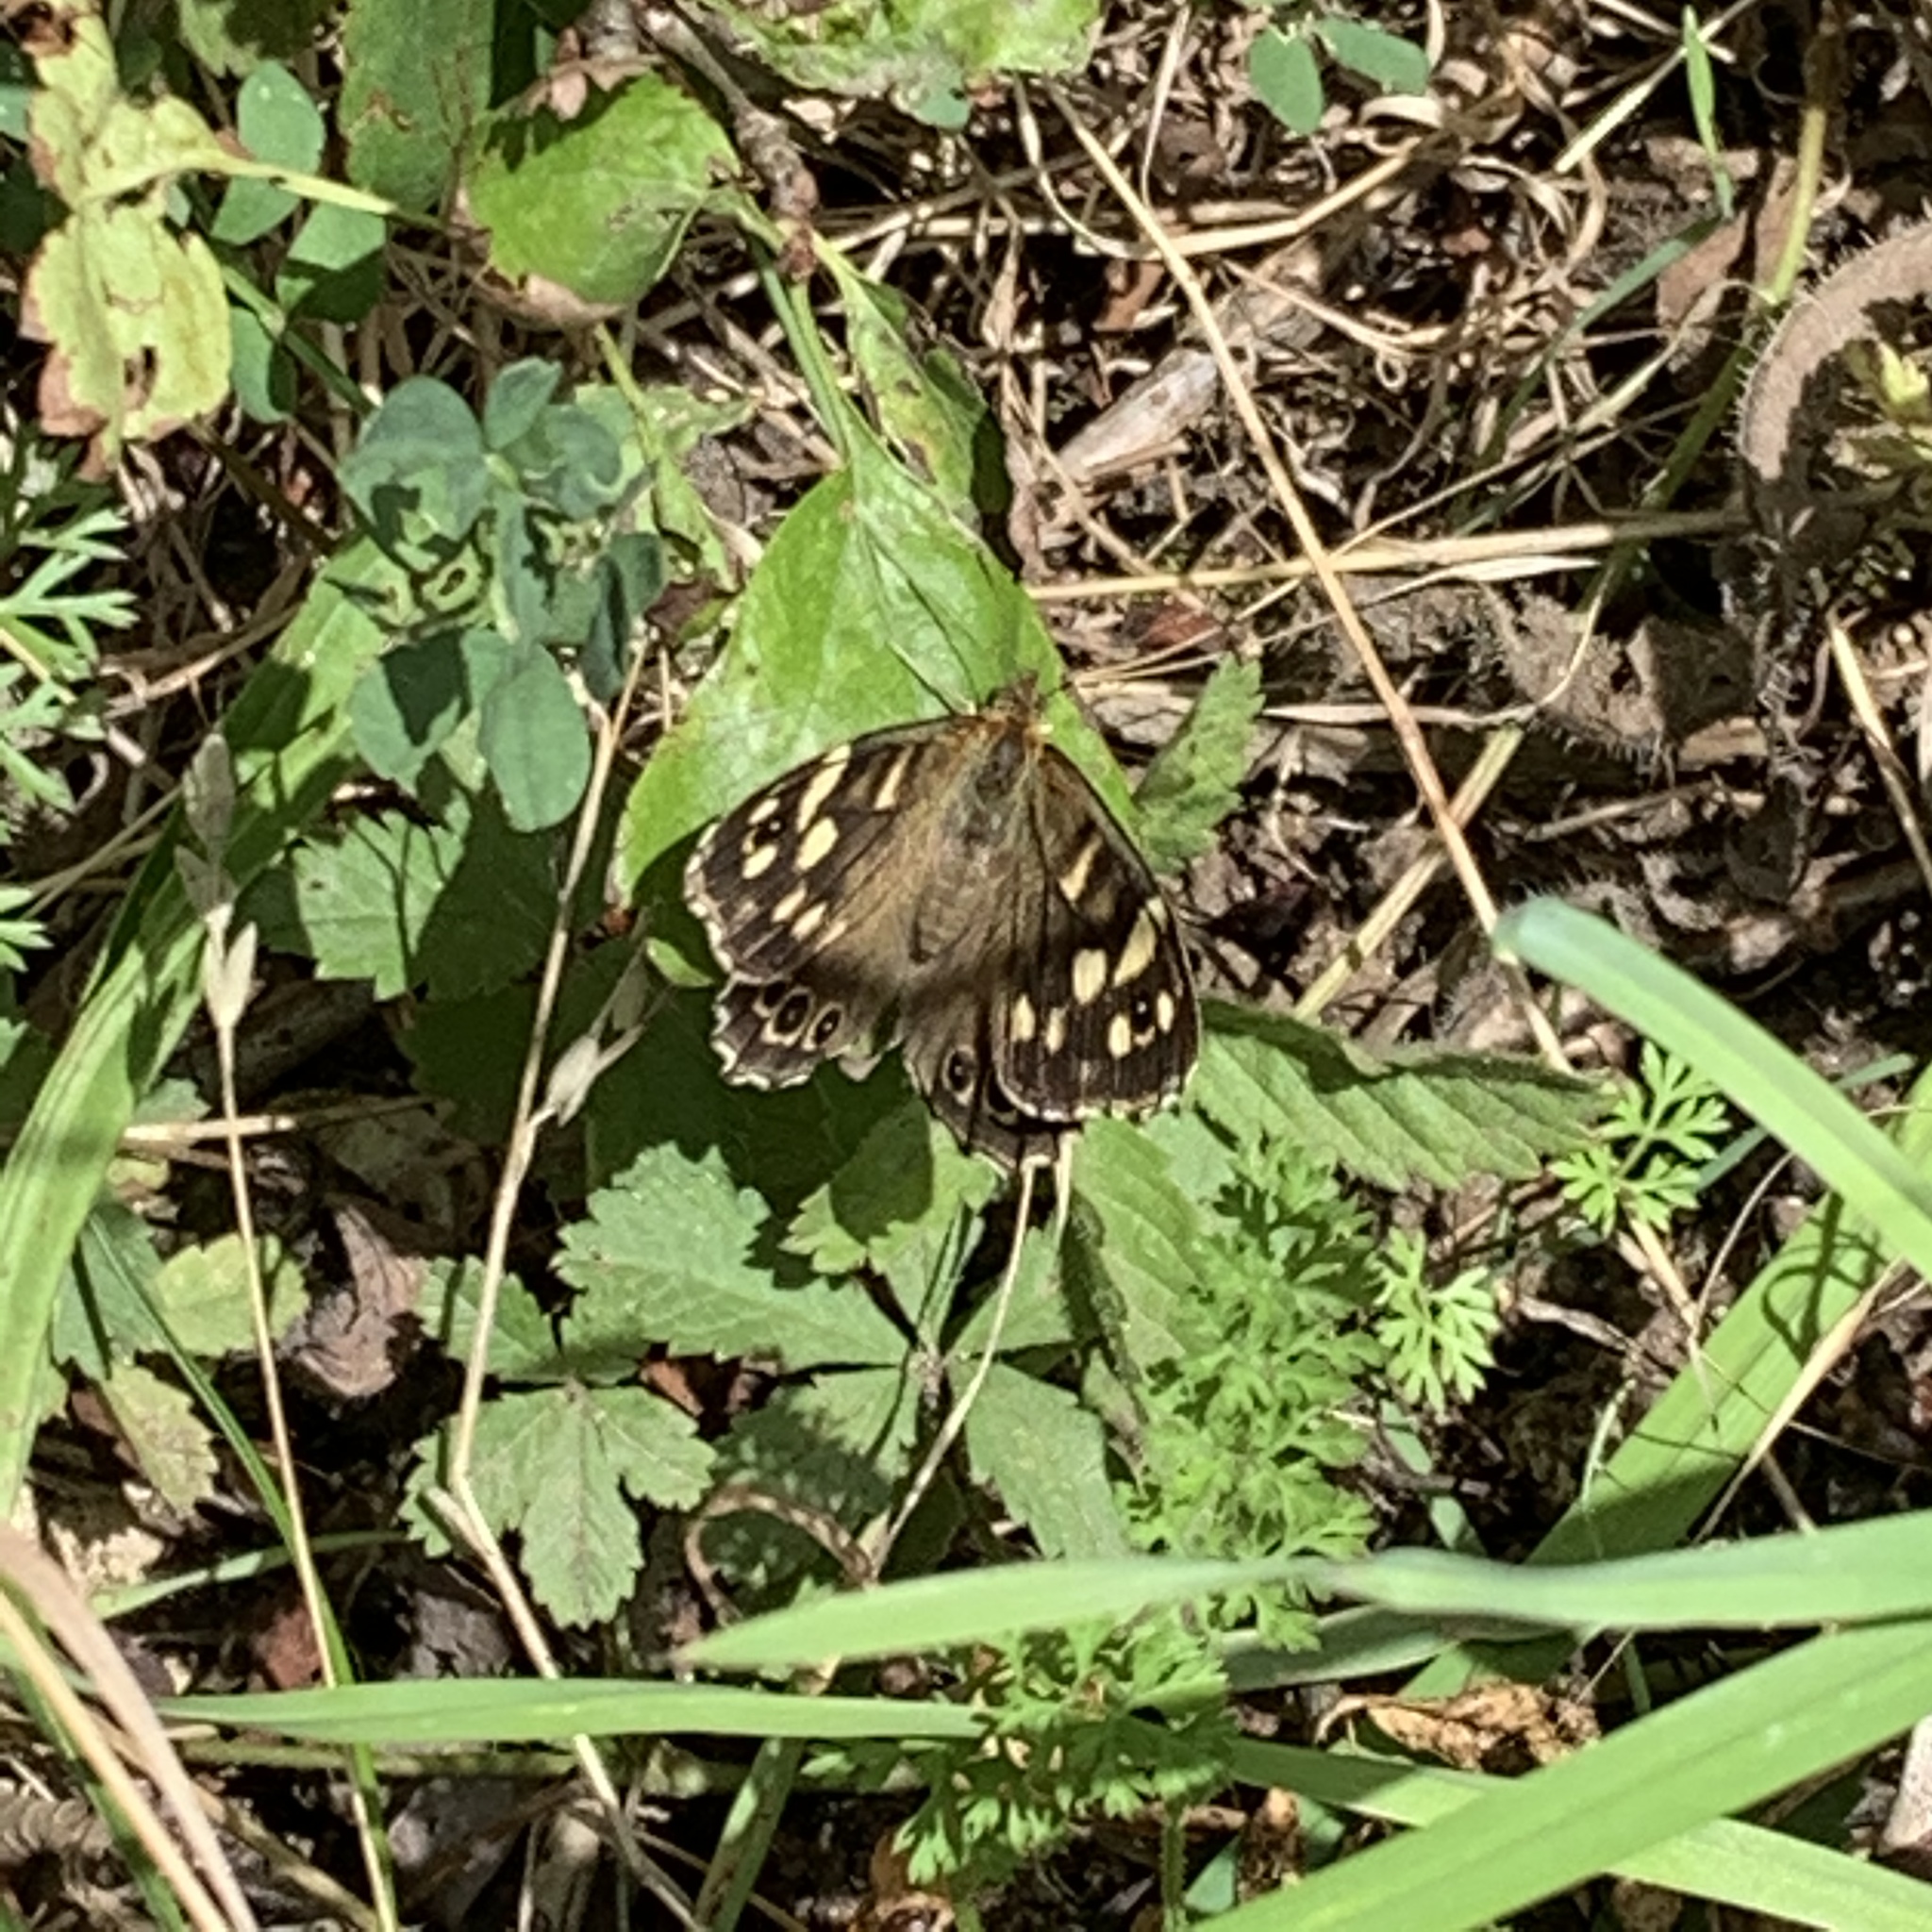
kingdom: Animalia
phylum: Arthropoda
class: Insecta
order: Lepidoptera
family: Nymphalidae
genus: Pararge
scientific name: Pararge aegeria
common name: Speckled wood
